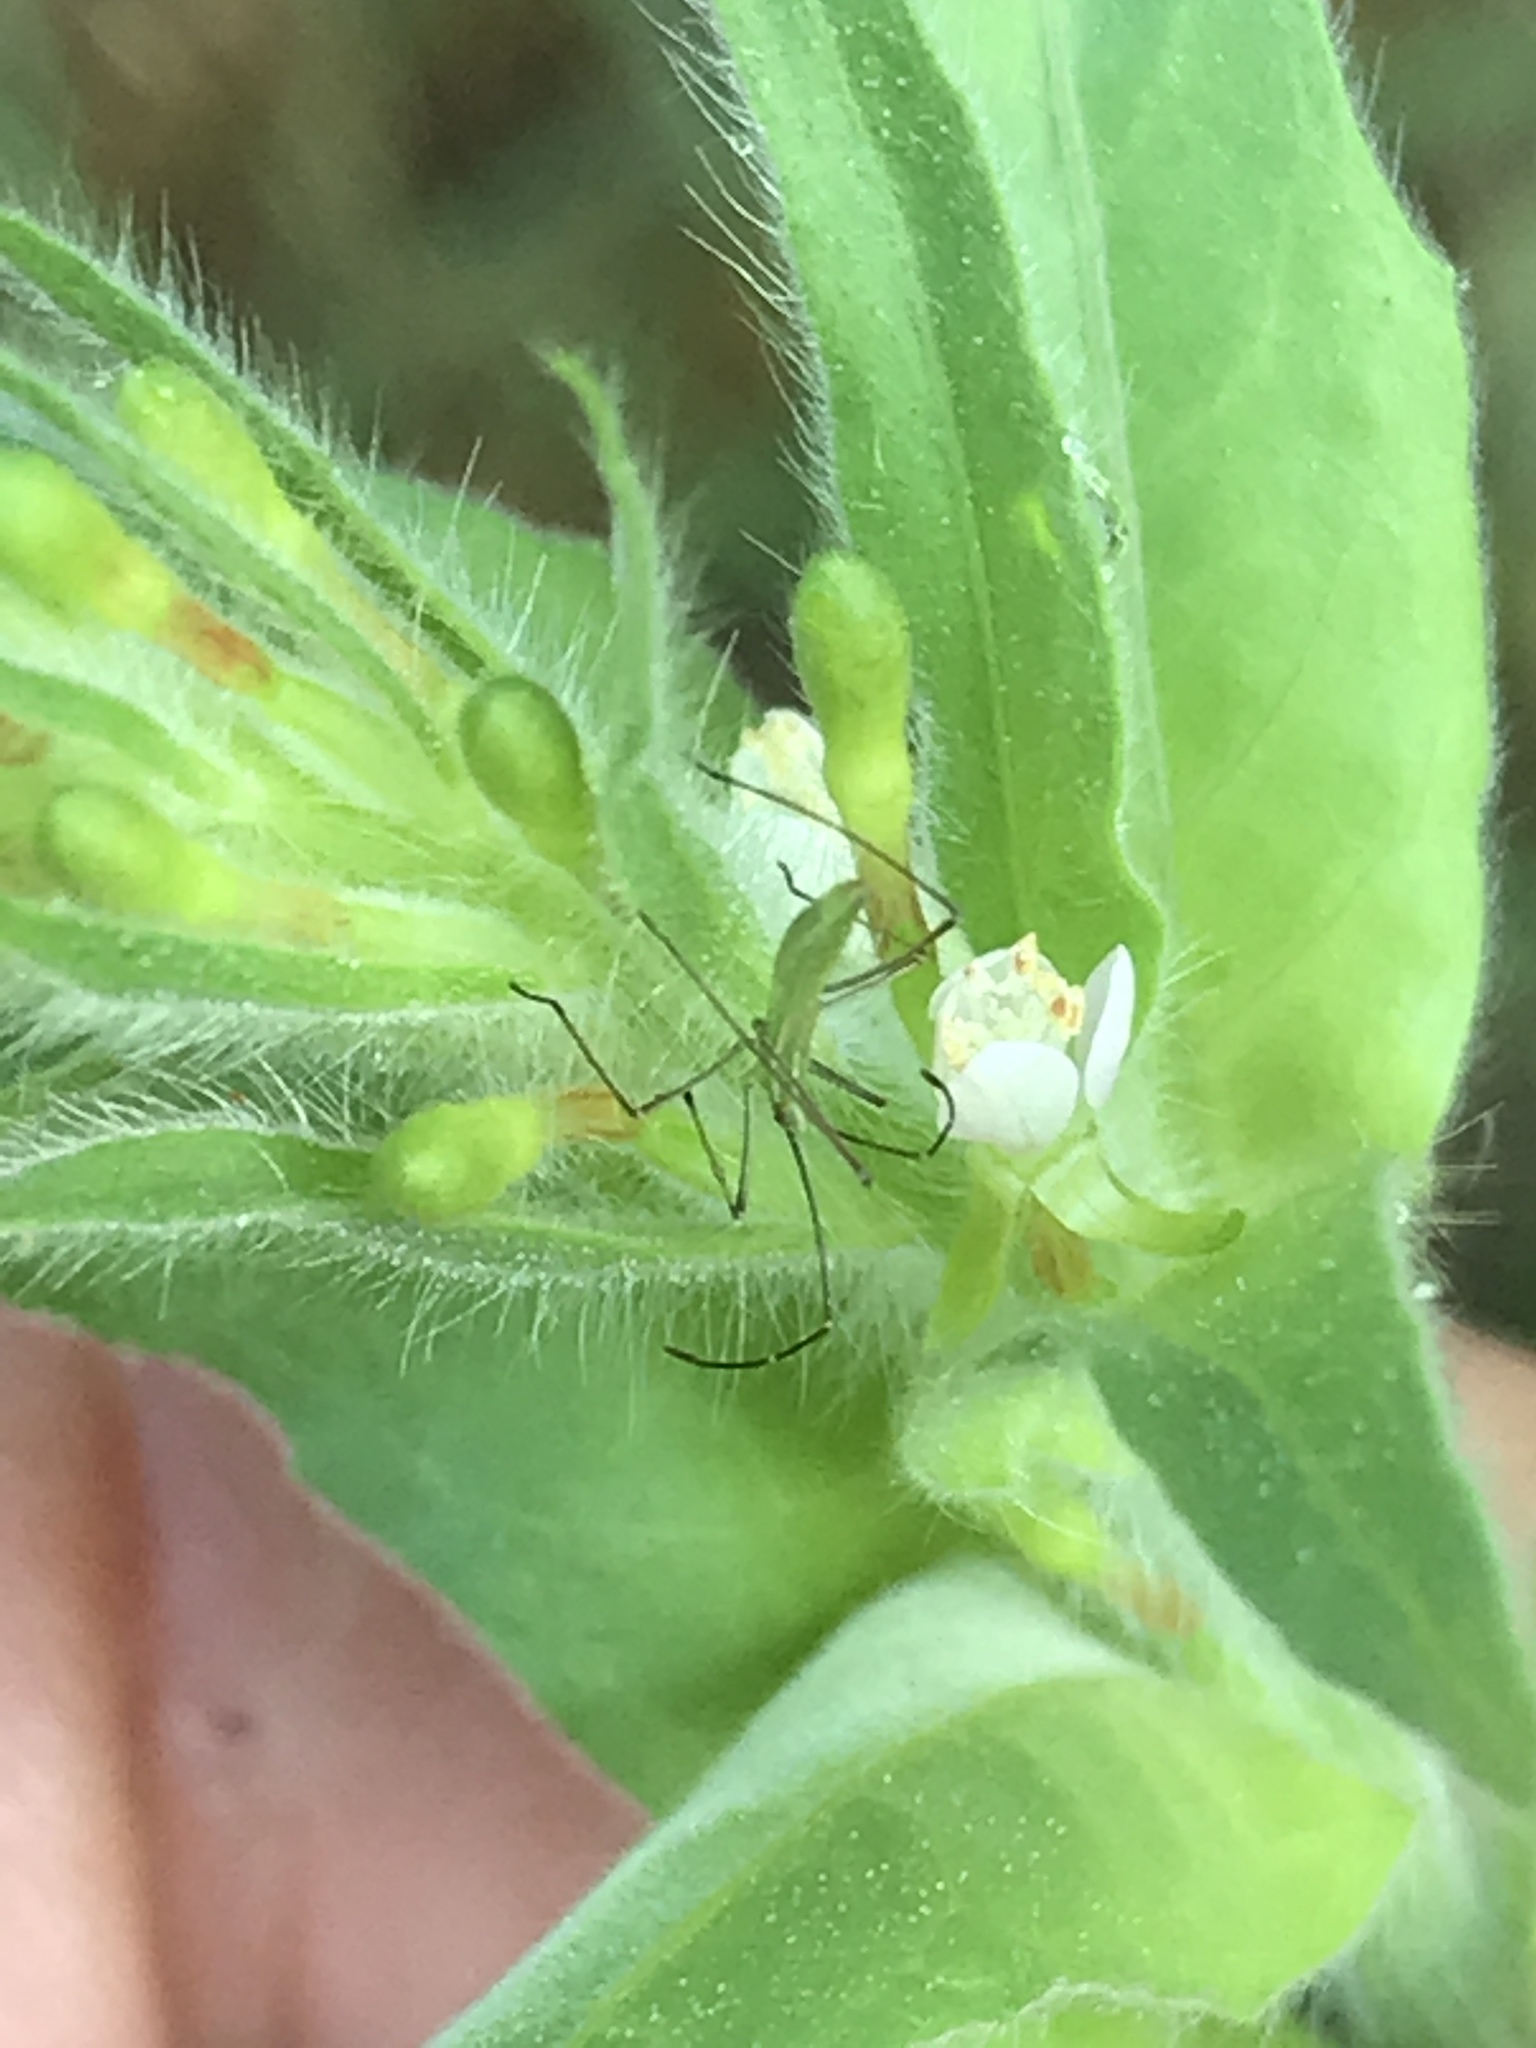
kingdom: Plantae
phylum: Tracheophyta
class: Magnoliopsida
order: Myrtales
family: Onagraceae
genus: Oenothera
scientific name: Oenothera curtiflora
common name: Velvetweed
